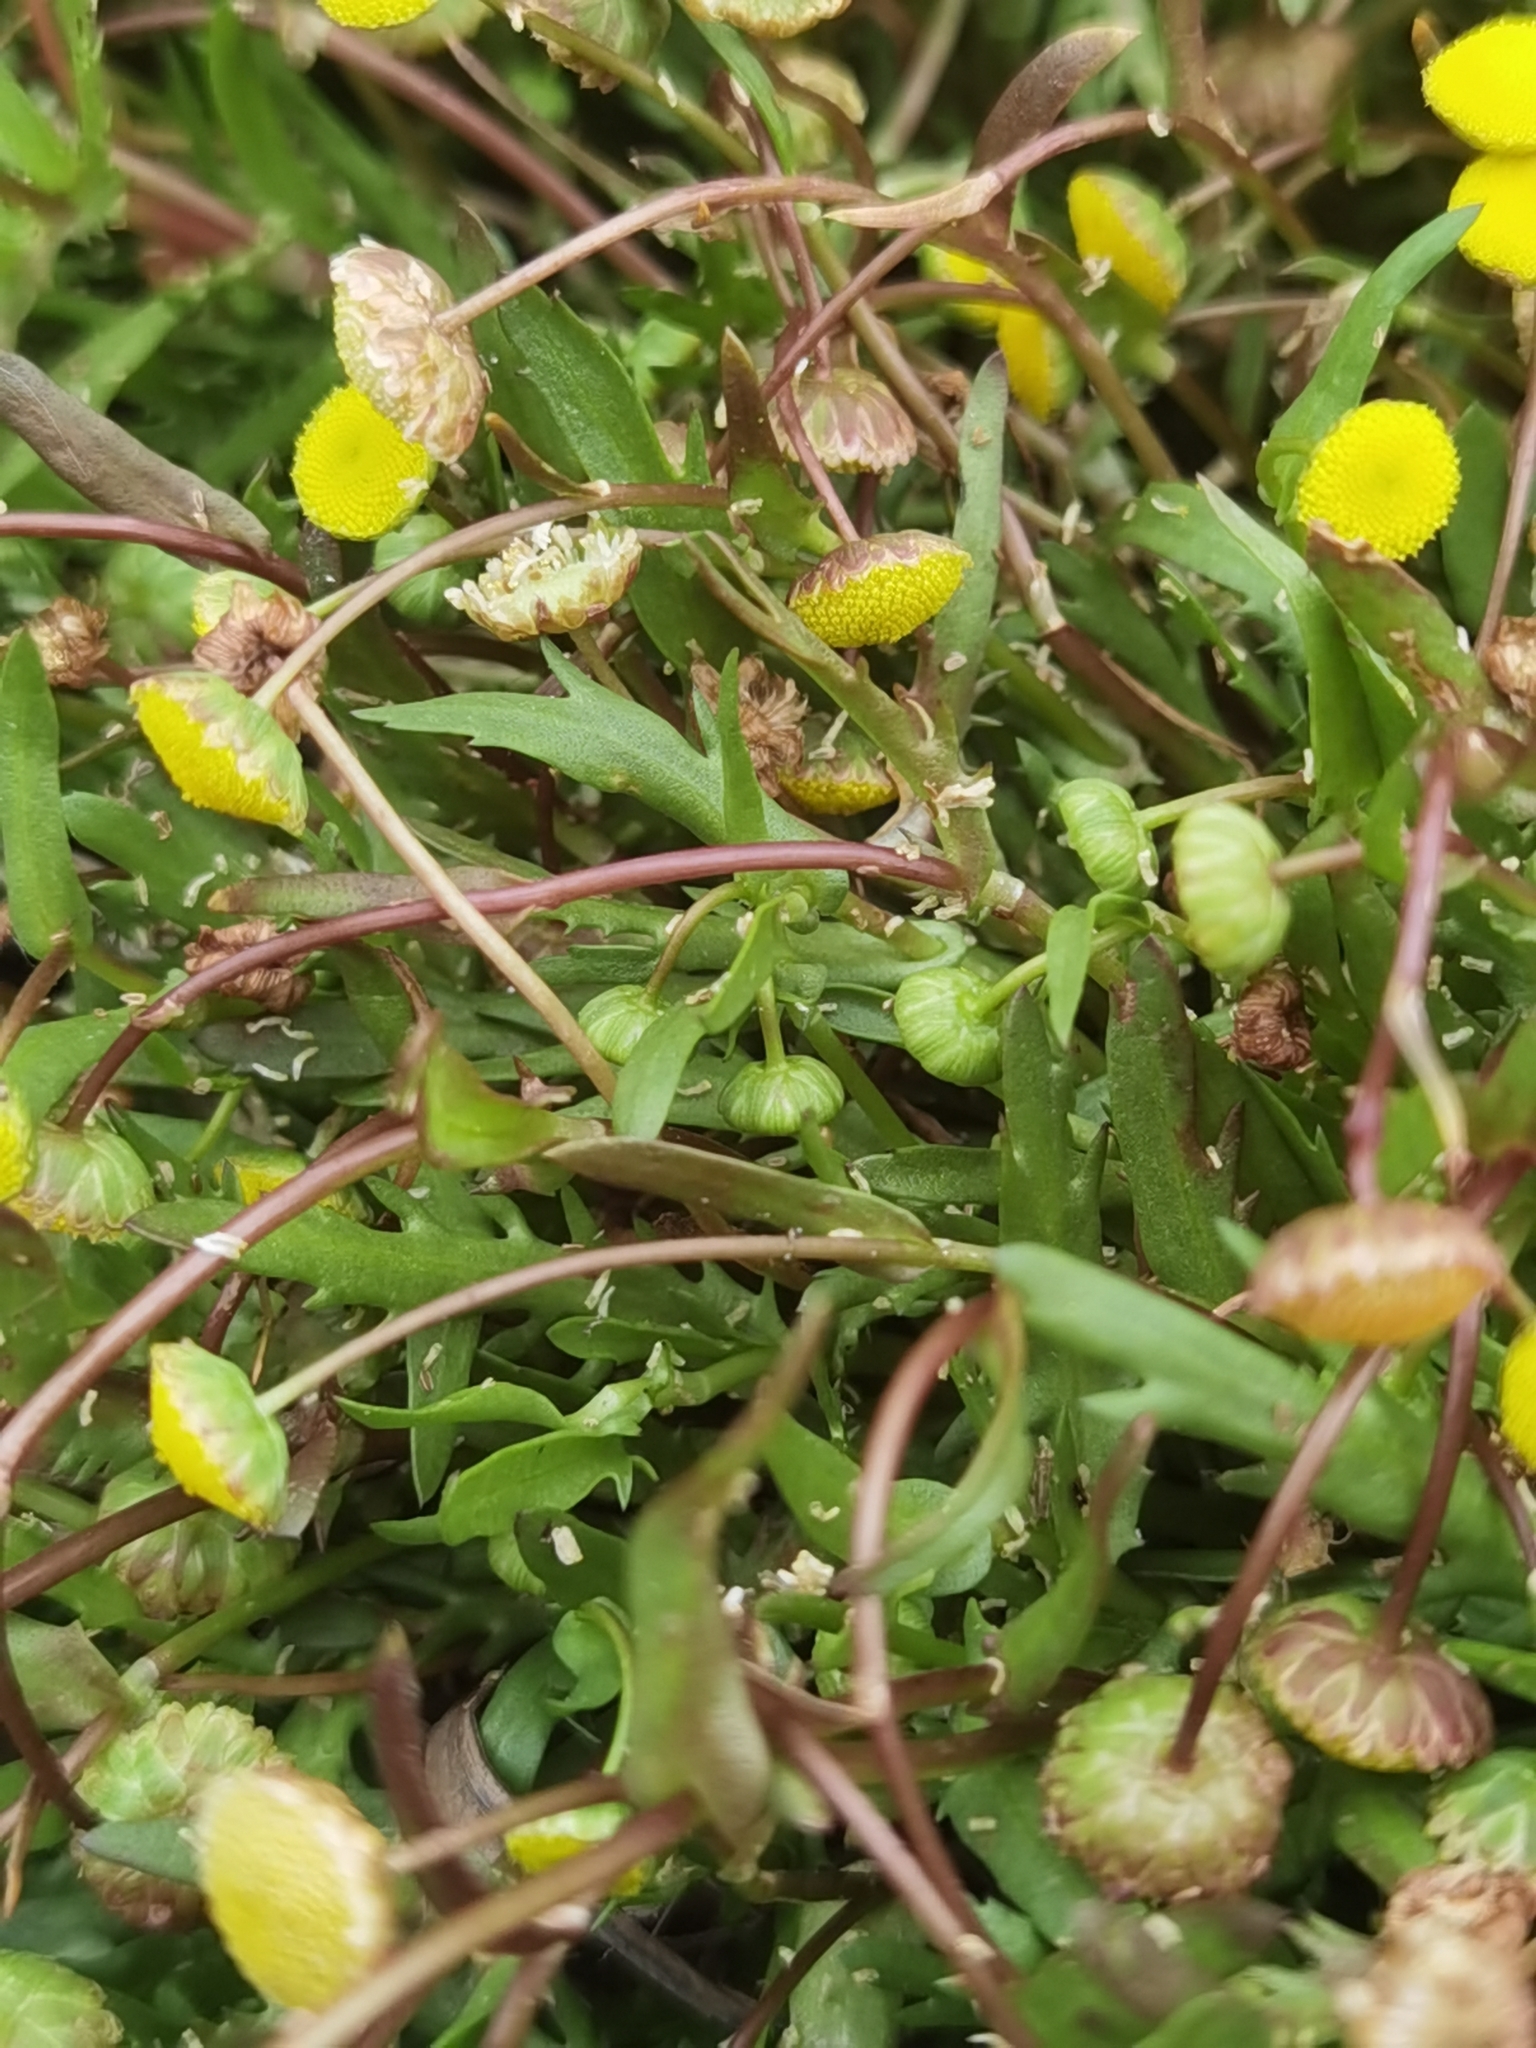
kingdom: Plantae
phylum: Tracheophyta
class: Magnoliopsida
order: Asterales
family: Asteraceae
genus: Cotula
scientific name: Cotula coronopifolia
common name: Buttonweed
